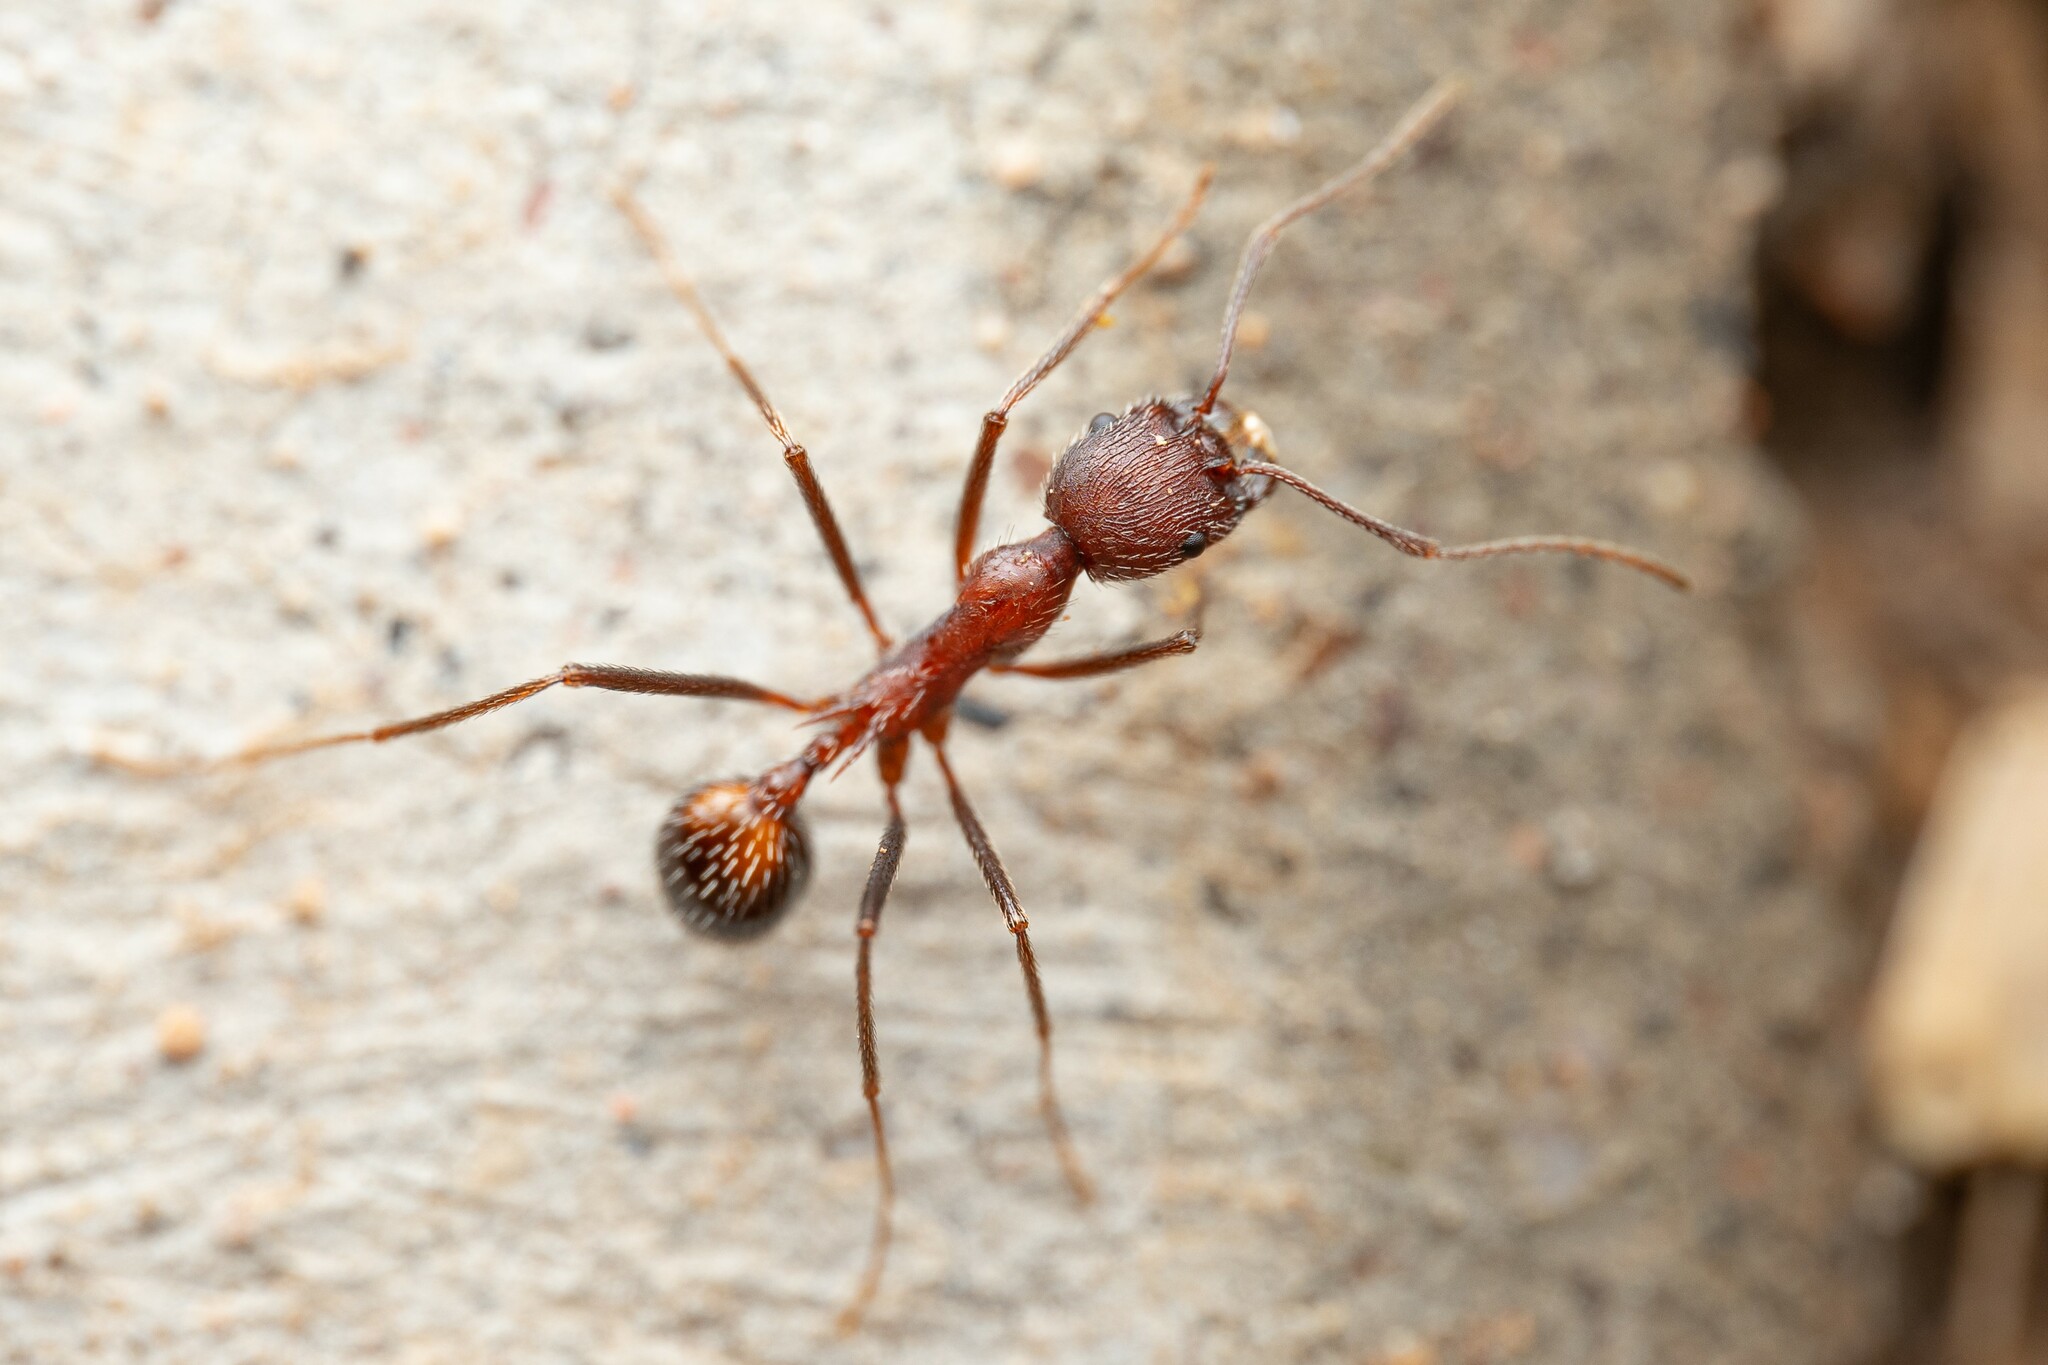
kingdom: Animalia
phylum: Arthropoda
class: Insecta
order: Hymenoptera
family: Formicidae
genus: Novomessor
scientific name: Novomessor albisetosa
